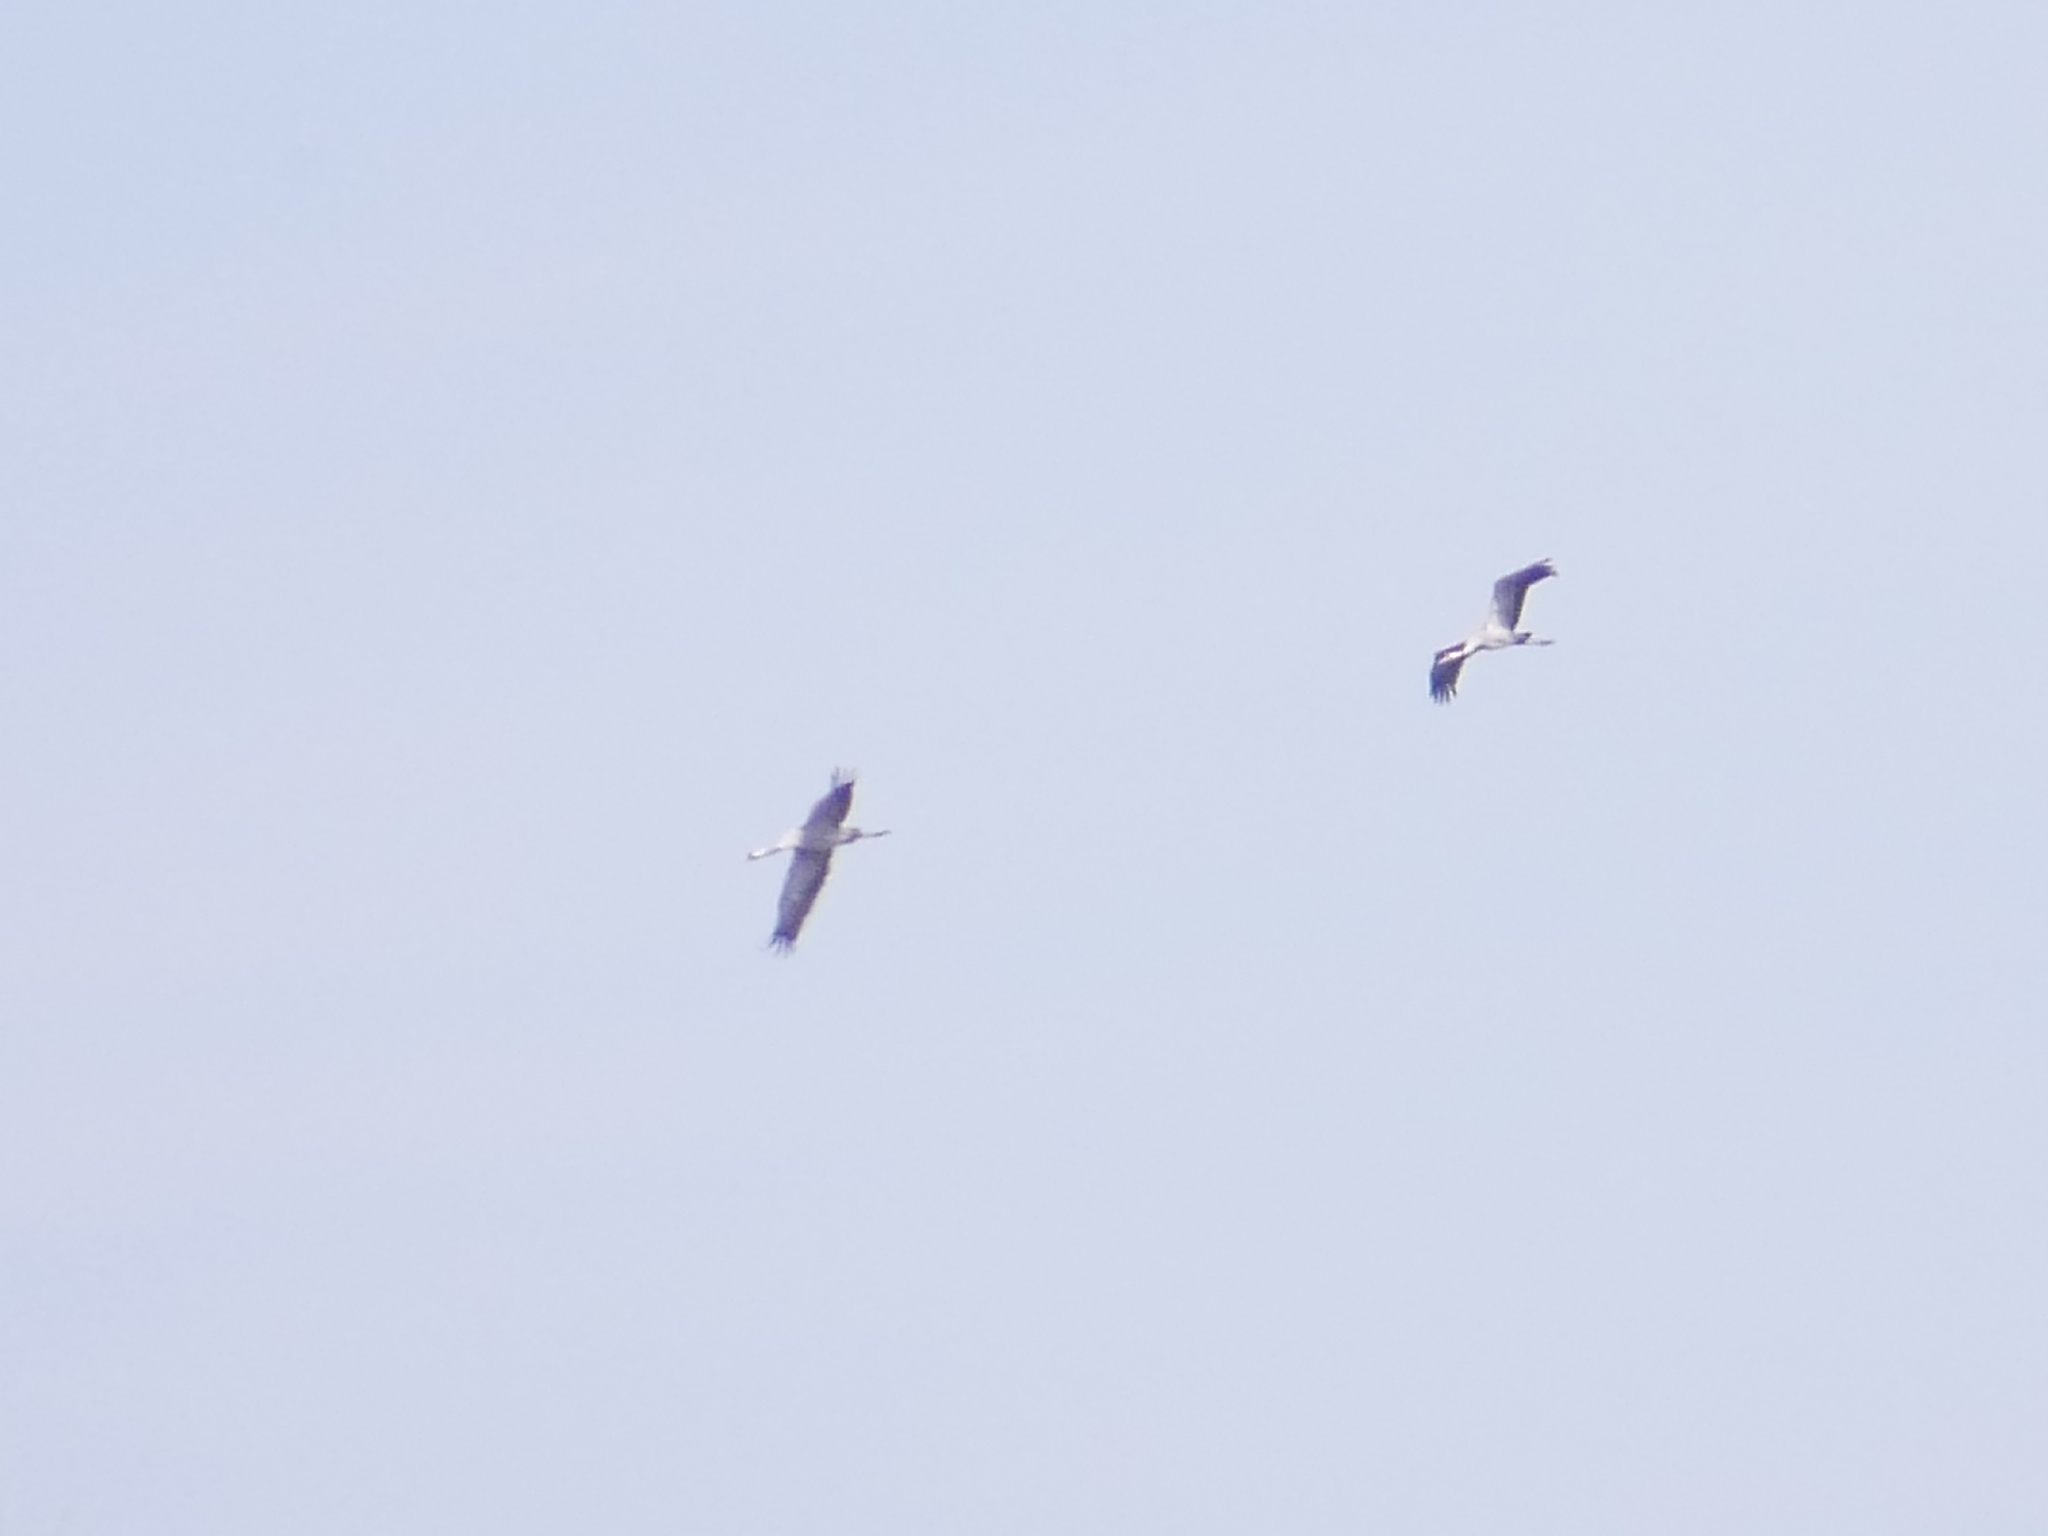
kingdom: Animalia
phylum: Chordata
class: Aves
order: Gruiformes
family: Gruidae
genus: Grus
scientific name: Grus grus
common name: Common crane
